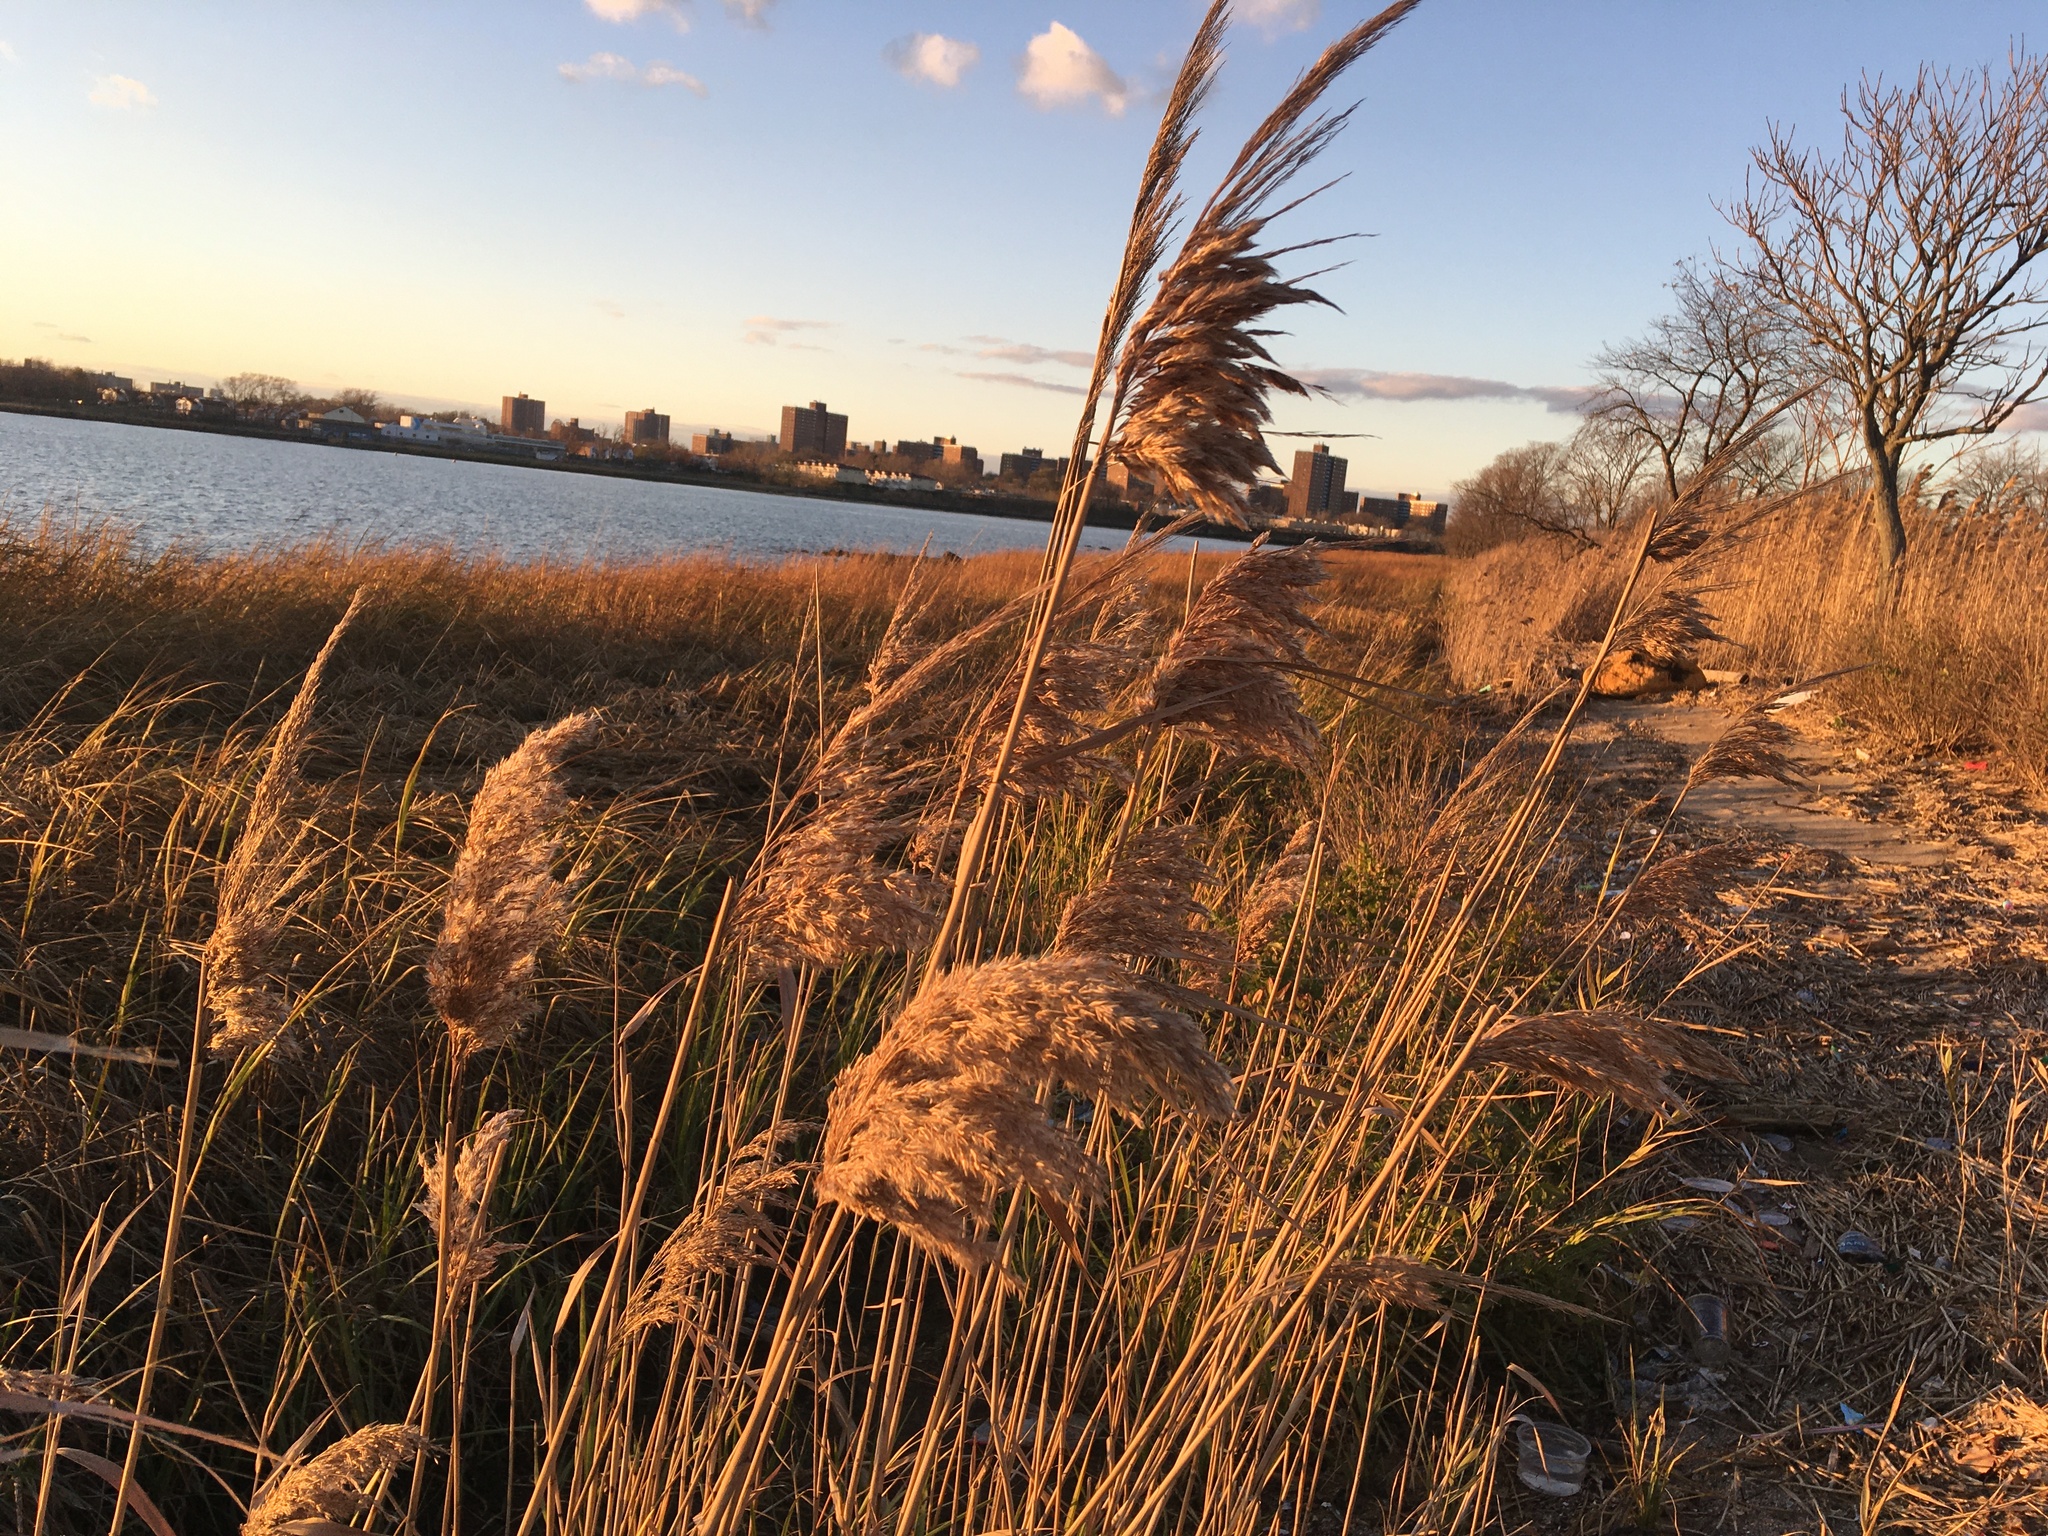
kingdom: Plantae
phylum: Tracheophyta
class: Liliopsida
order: Poales
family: Poaceae
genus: Phragmites
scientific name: Phragmites australis
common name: Common reed
